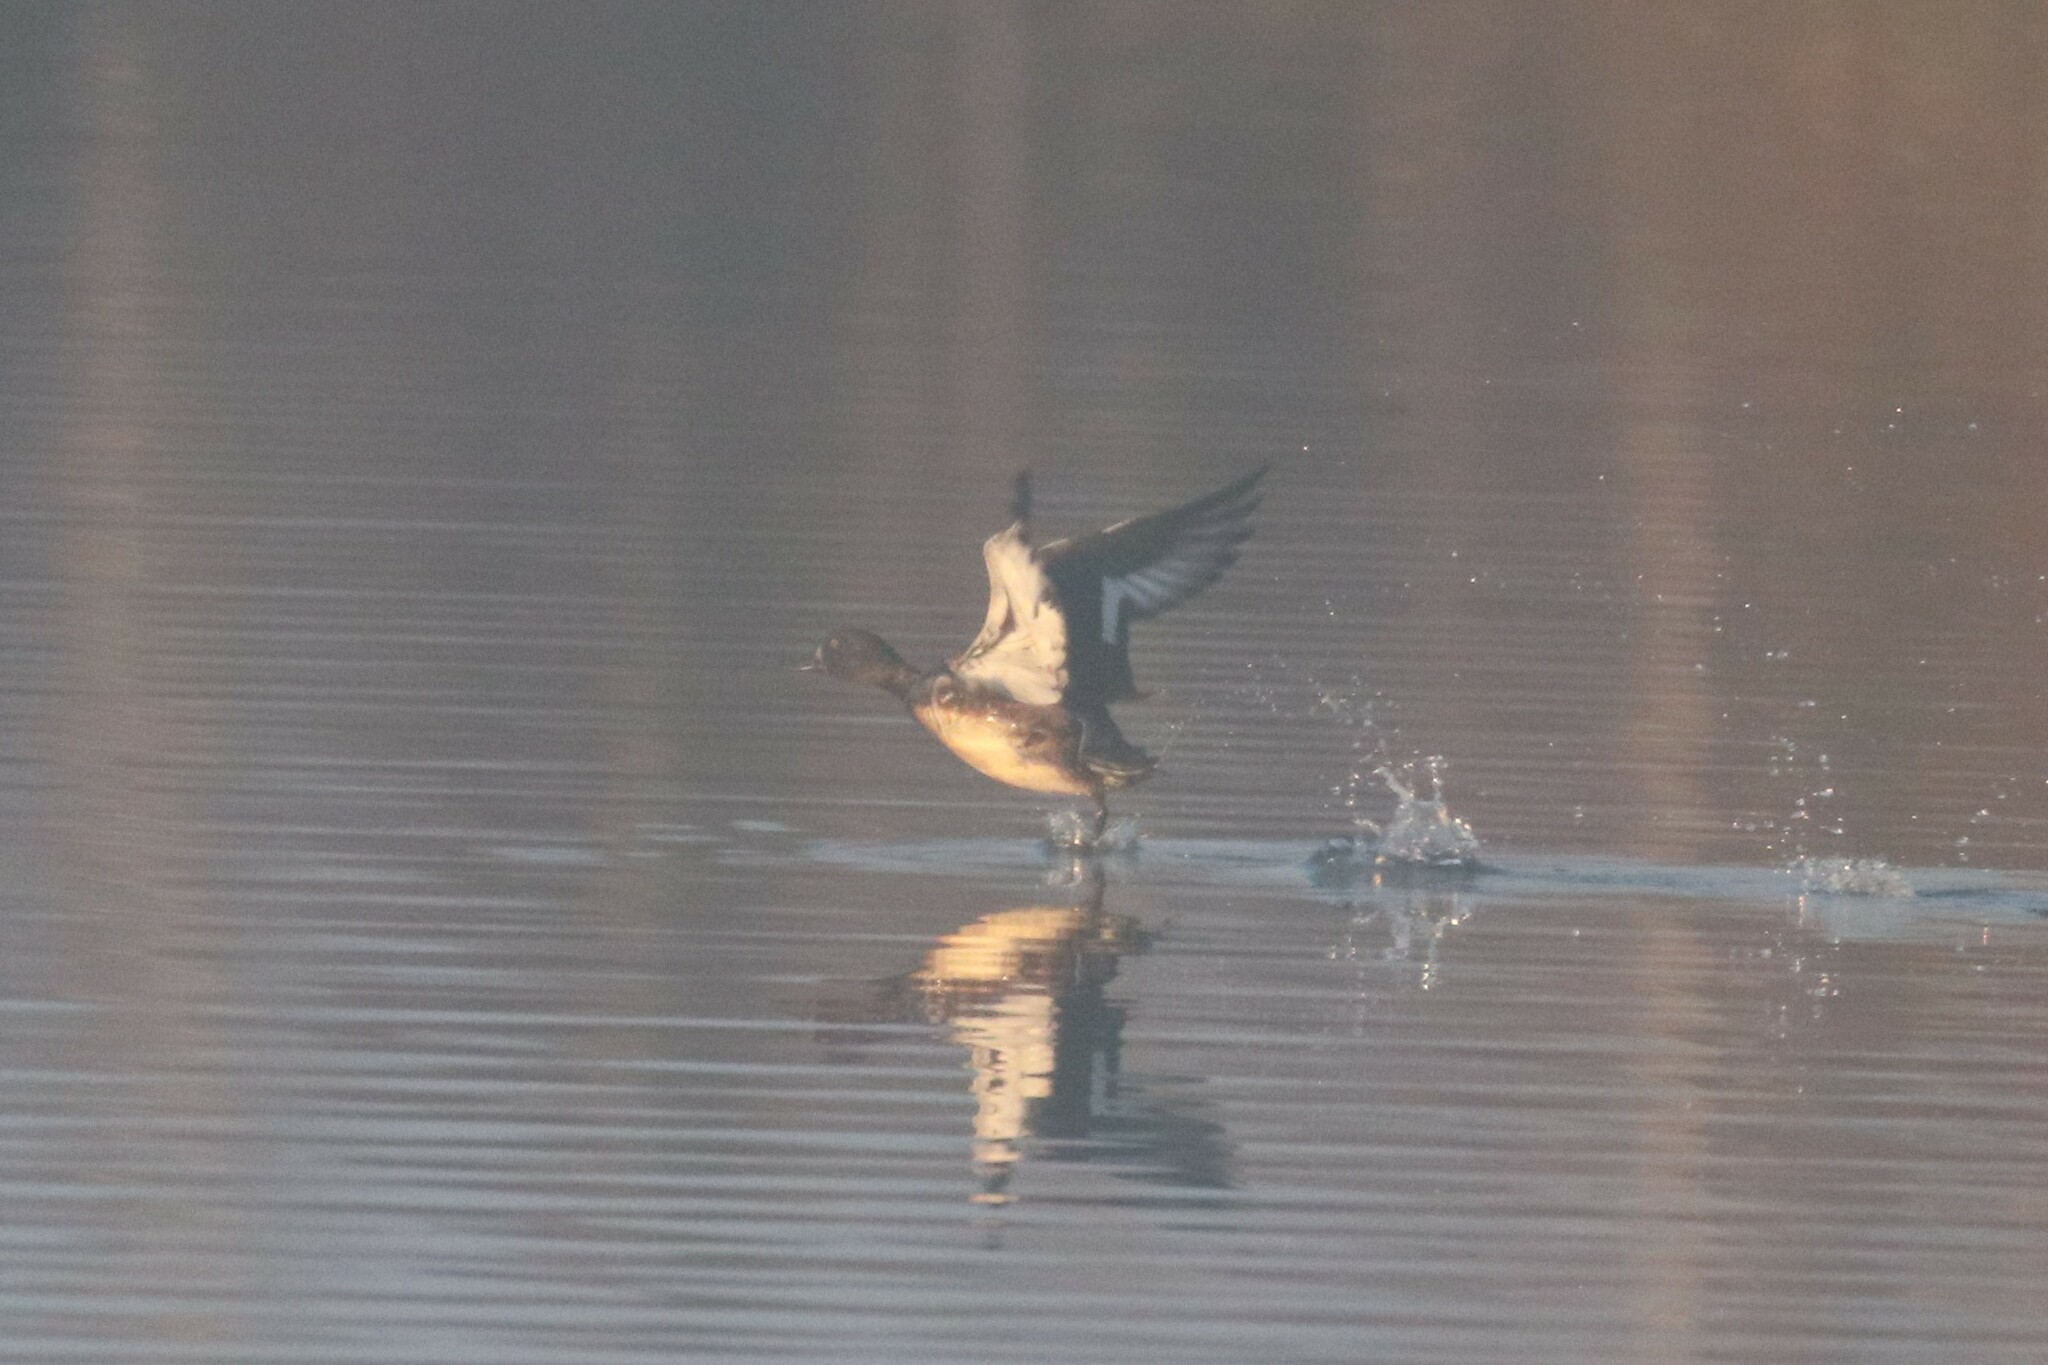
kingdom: Animalia
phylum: Chordata
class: Aves
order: Anseriformes
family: Anatidae
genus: Aythya
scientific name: Aythya fuligula
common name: Tufted duck
